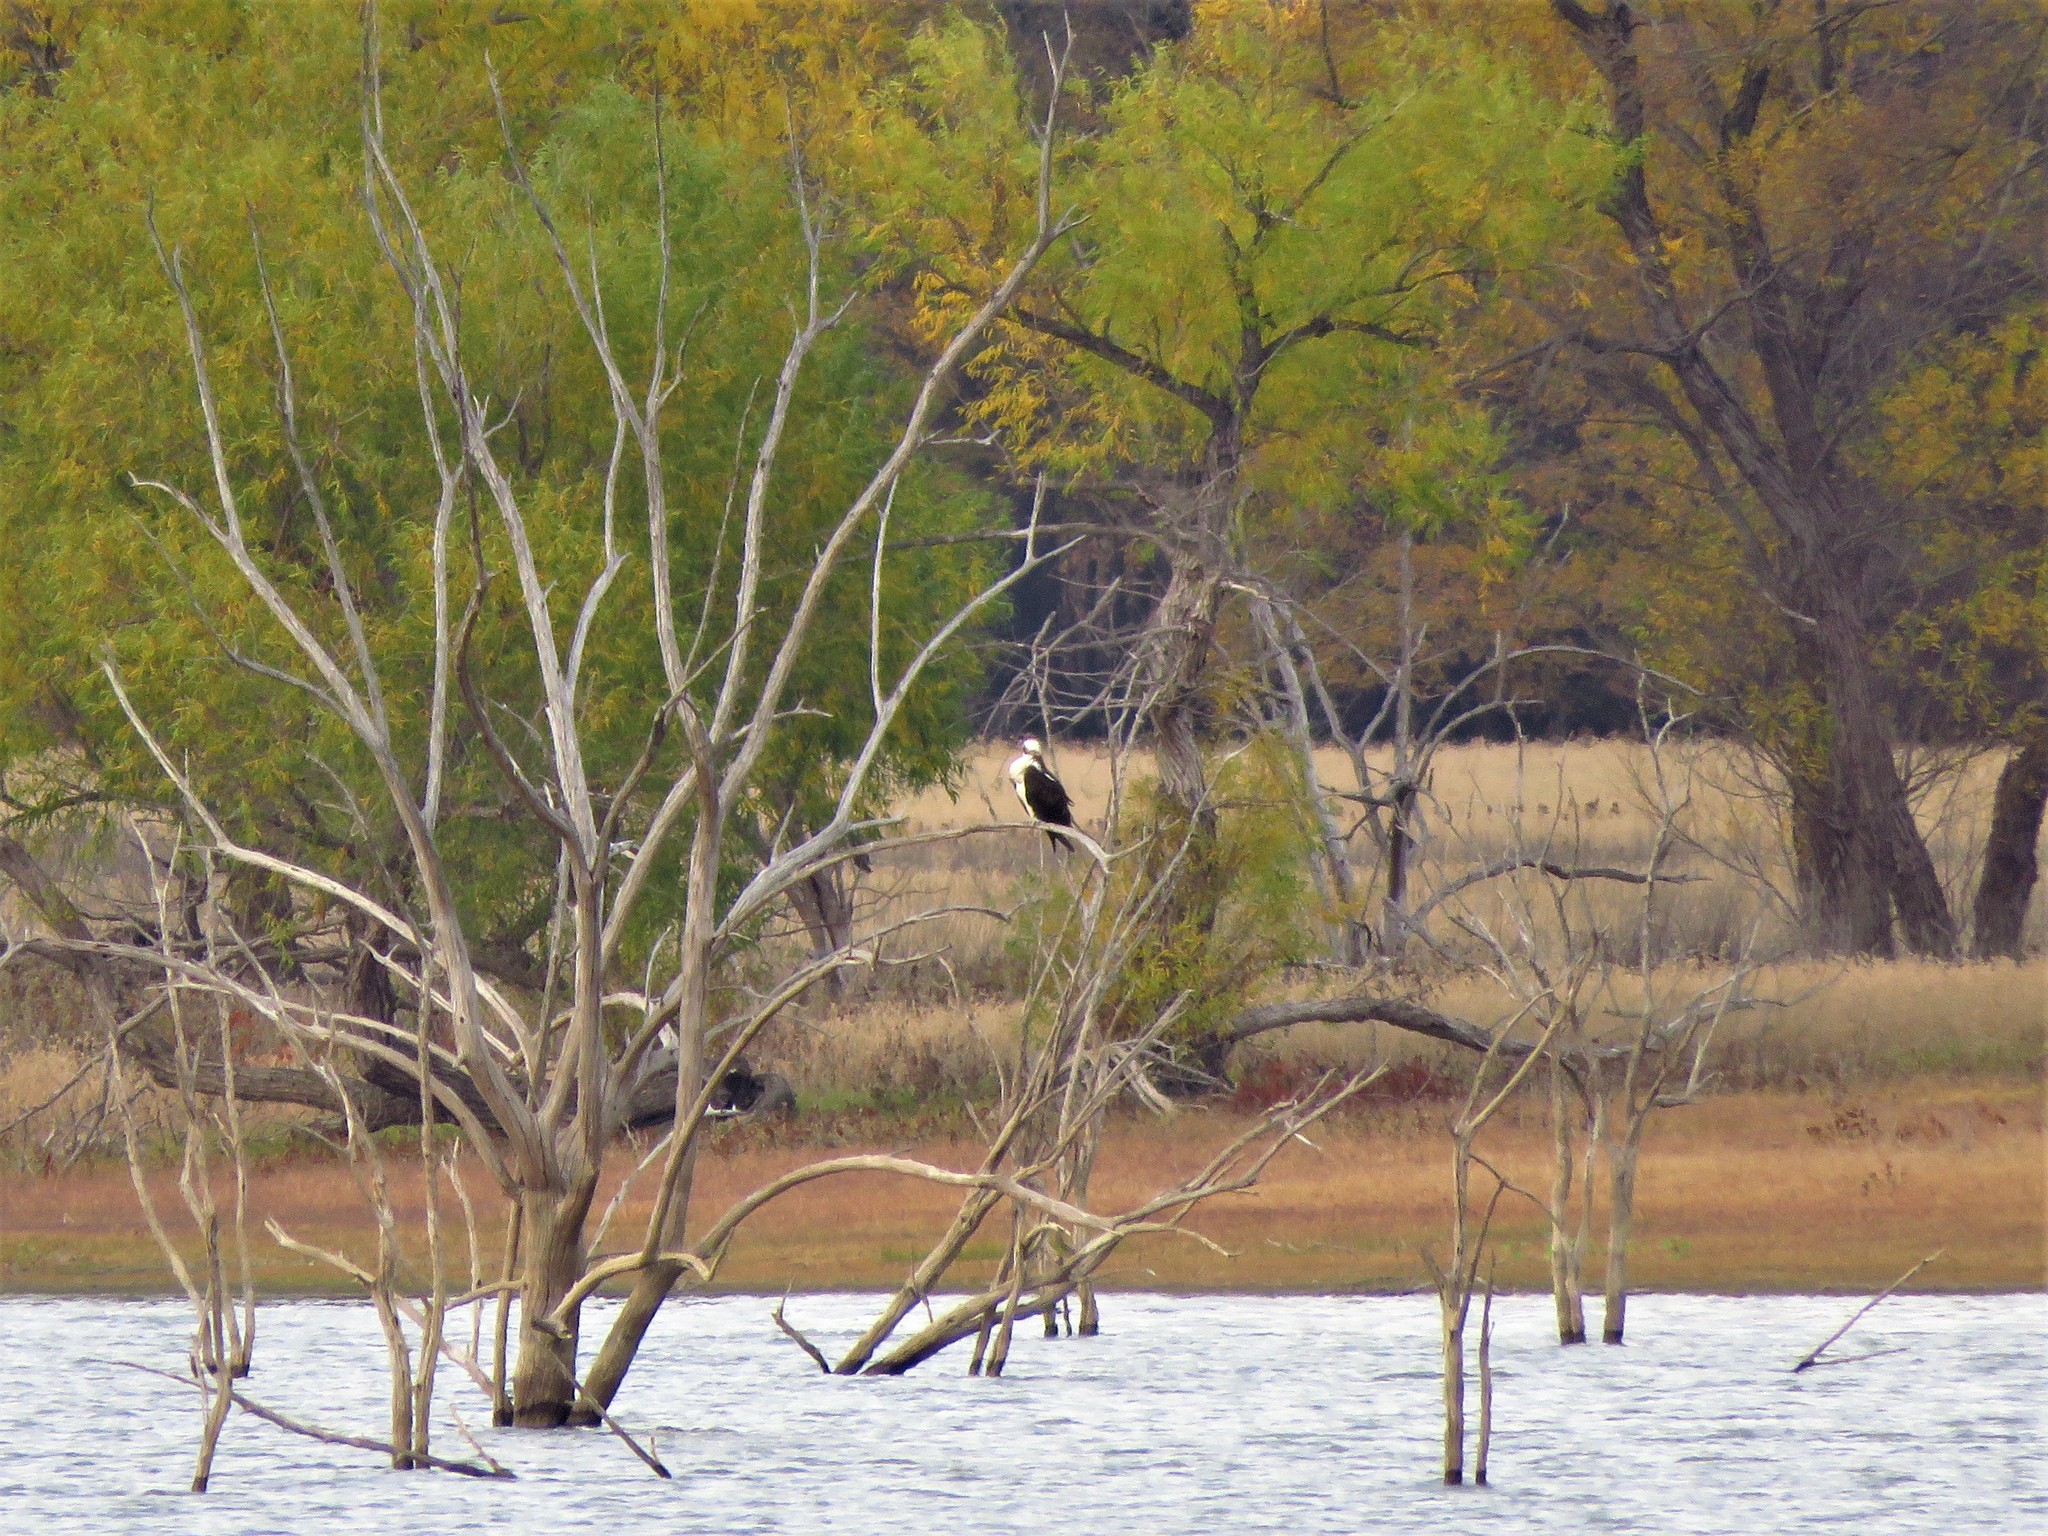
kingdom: Animalia
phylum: Chordata
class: Aves
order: Accipitriformes
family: Pandionidae
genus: Pandion
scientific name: Pandion haliaetus
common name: Osprey
